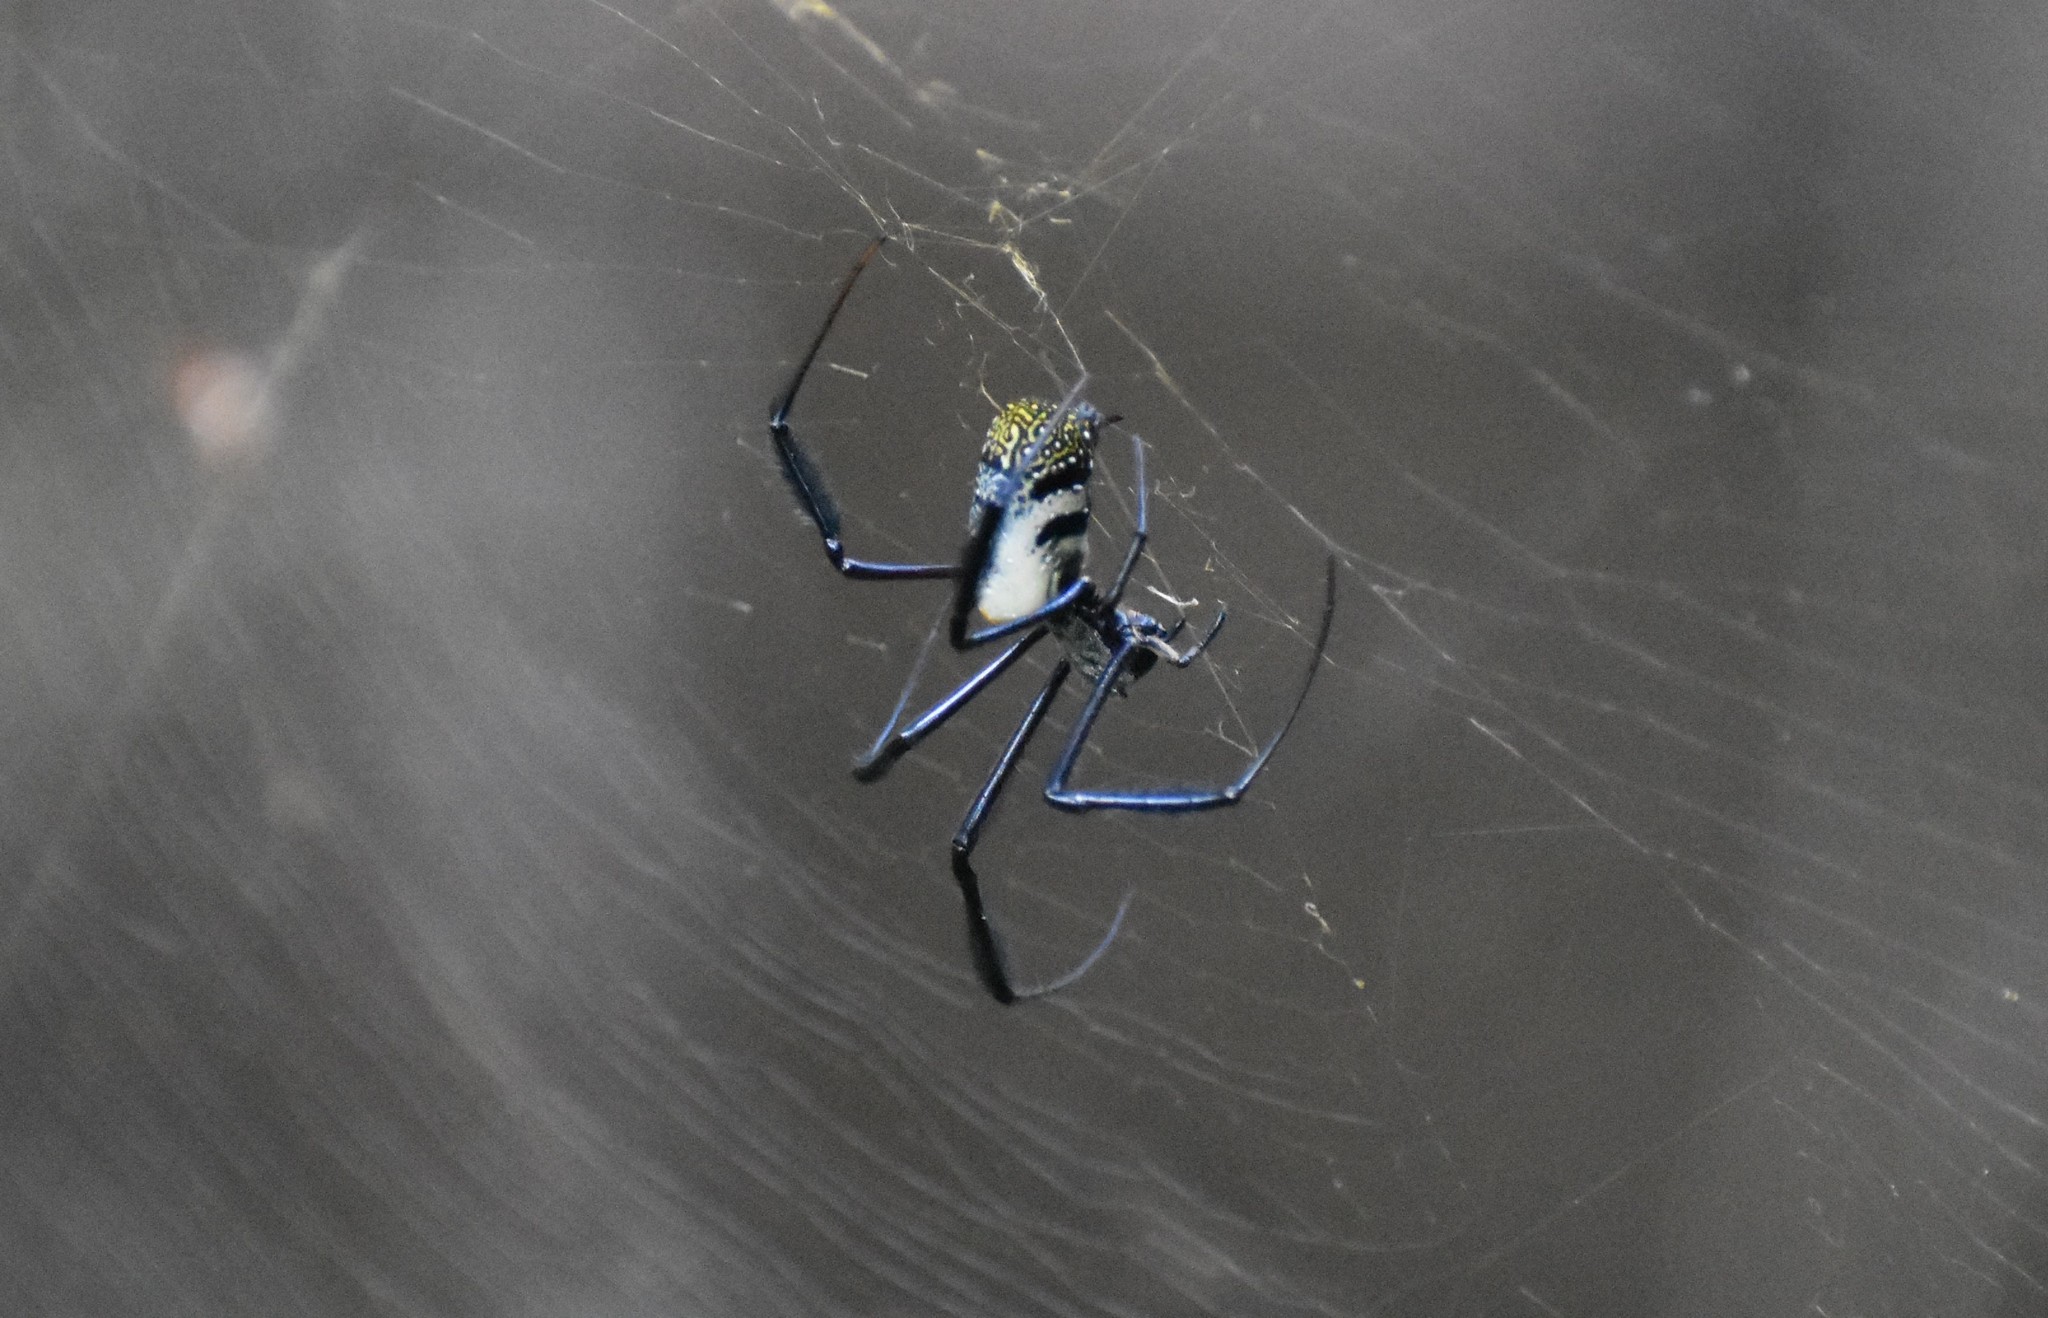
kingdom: Animalia
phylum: Arthropoda
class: Arachnida
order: Araneae
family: Araneidae
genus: Trichonephila
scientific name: Trichonephila fenestrata
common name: Hairy golden orb weaver
